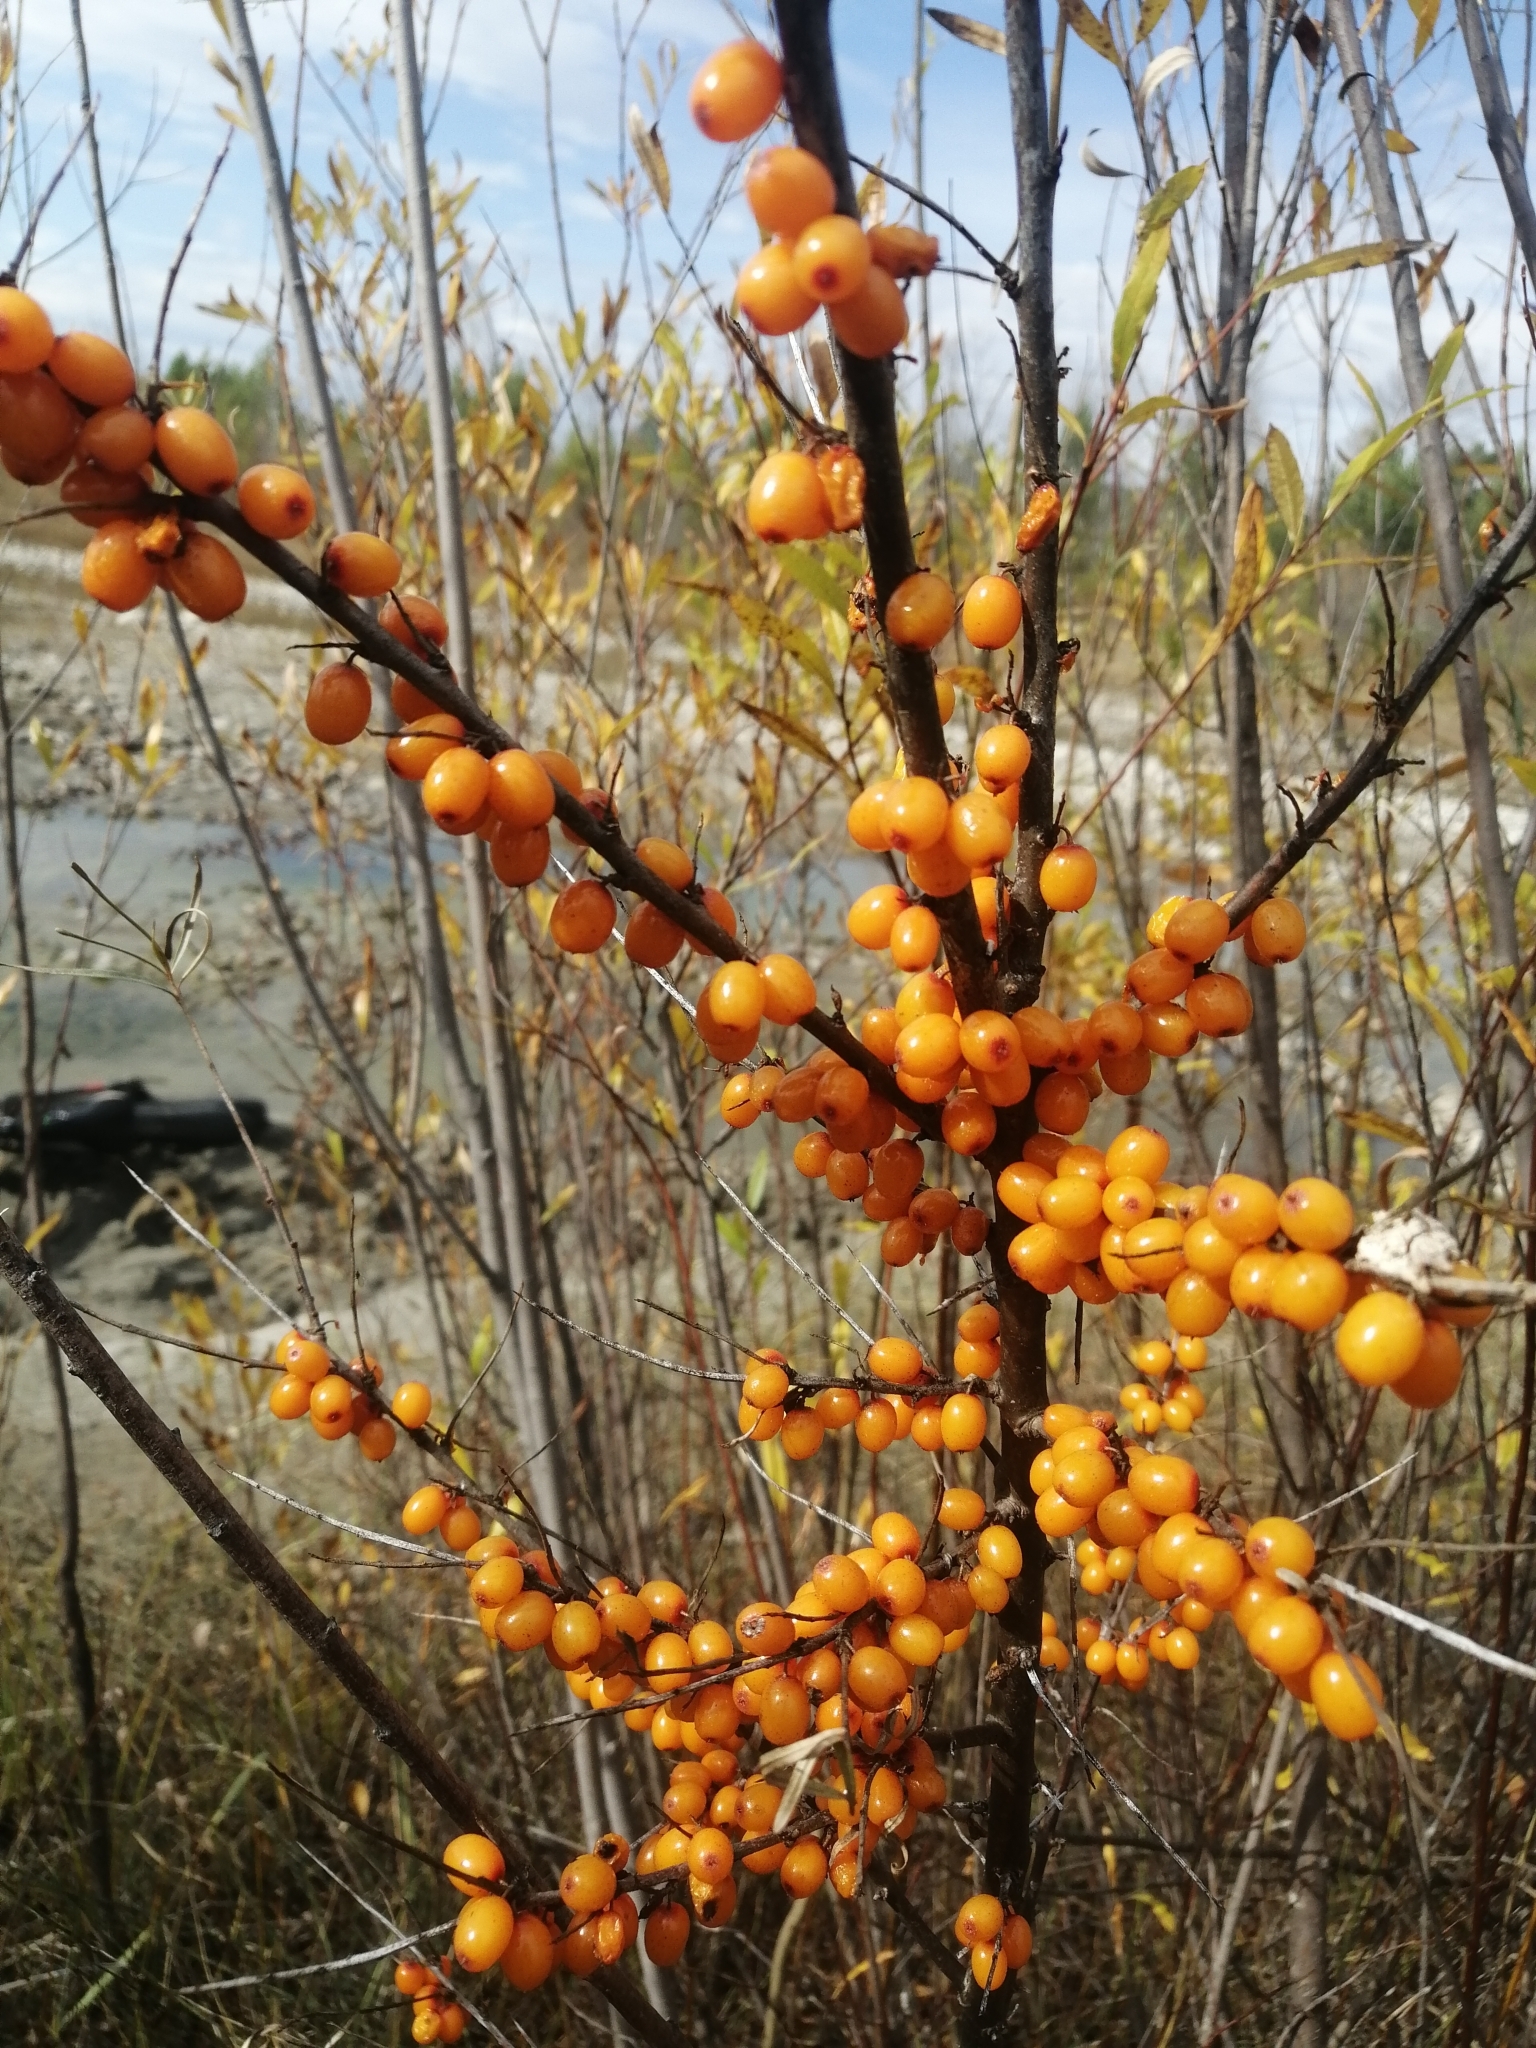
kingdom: Plantae
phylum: Tracheophyta
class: Magnoliopsida
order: Rosales
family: Elaeagnaceae
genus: Hippophae
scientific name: Hippophae rhamnoides
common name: Sea-buckthorn
